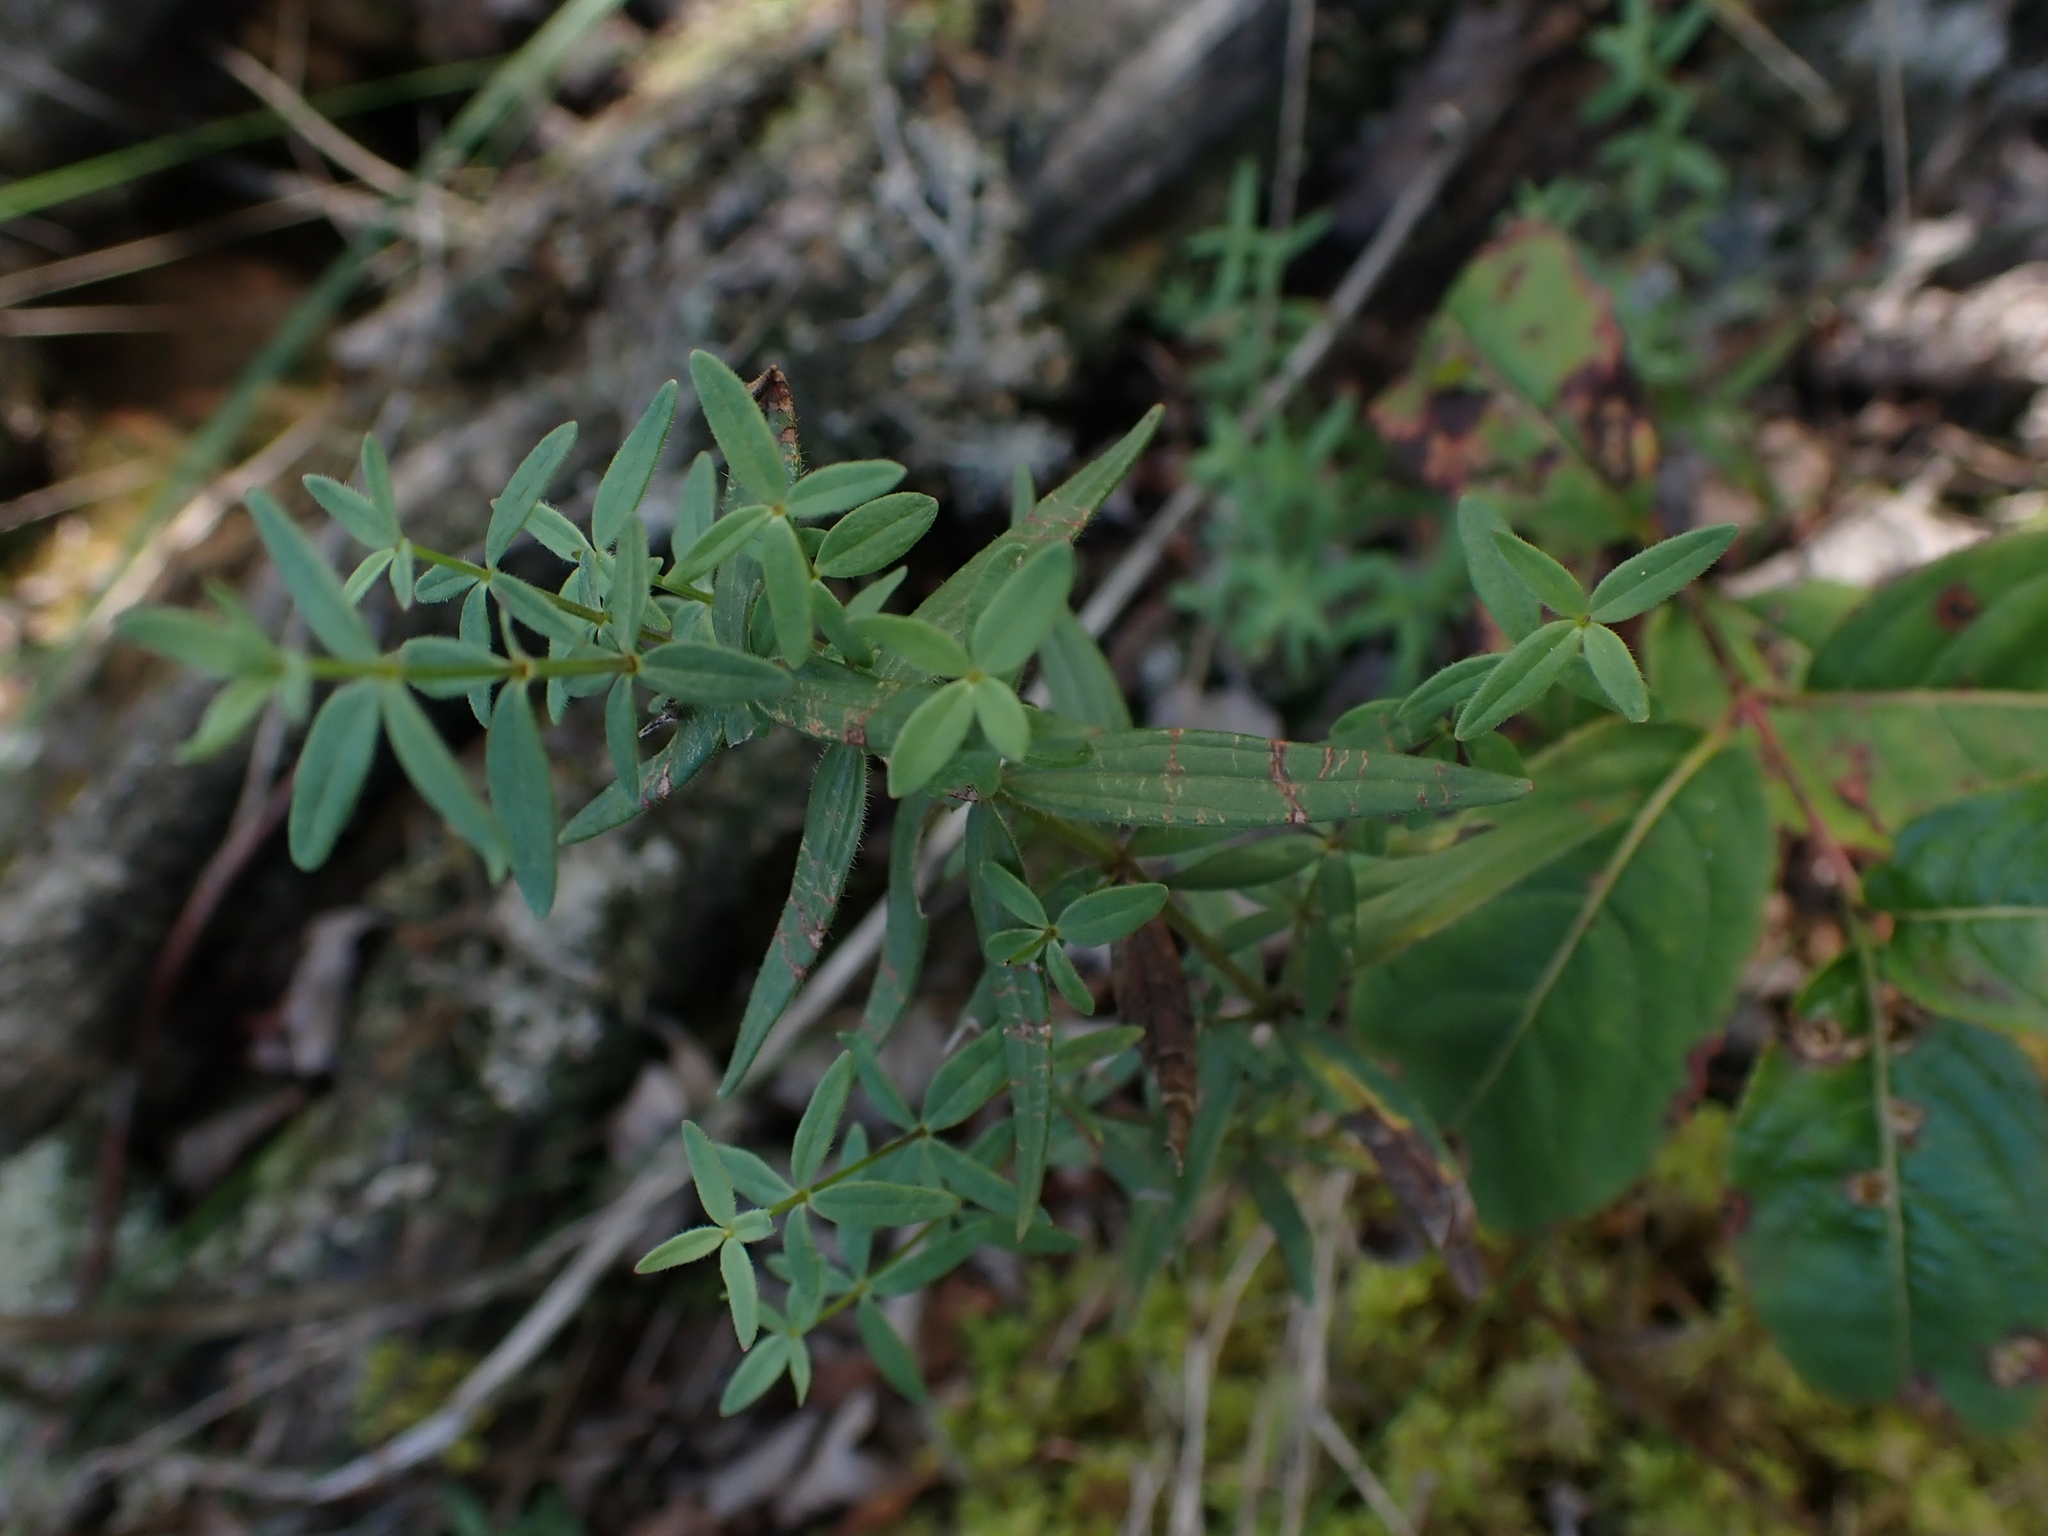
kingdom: Plantae
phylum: Tracheophyta
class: Magnoliopsida
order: Gentianales
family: Rubiaceae
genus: Galium
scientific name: Galium boreale
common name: Northern bedstraw
